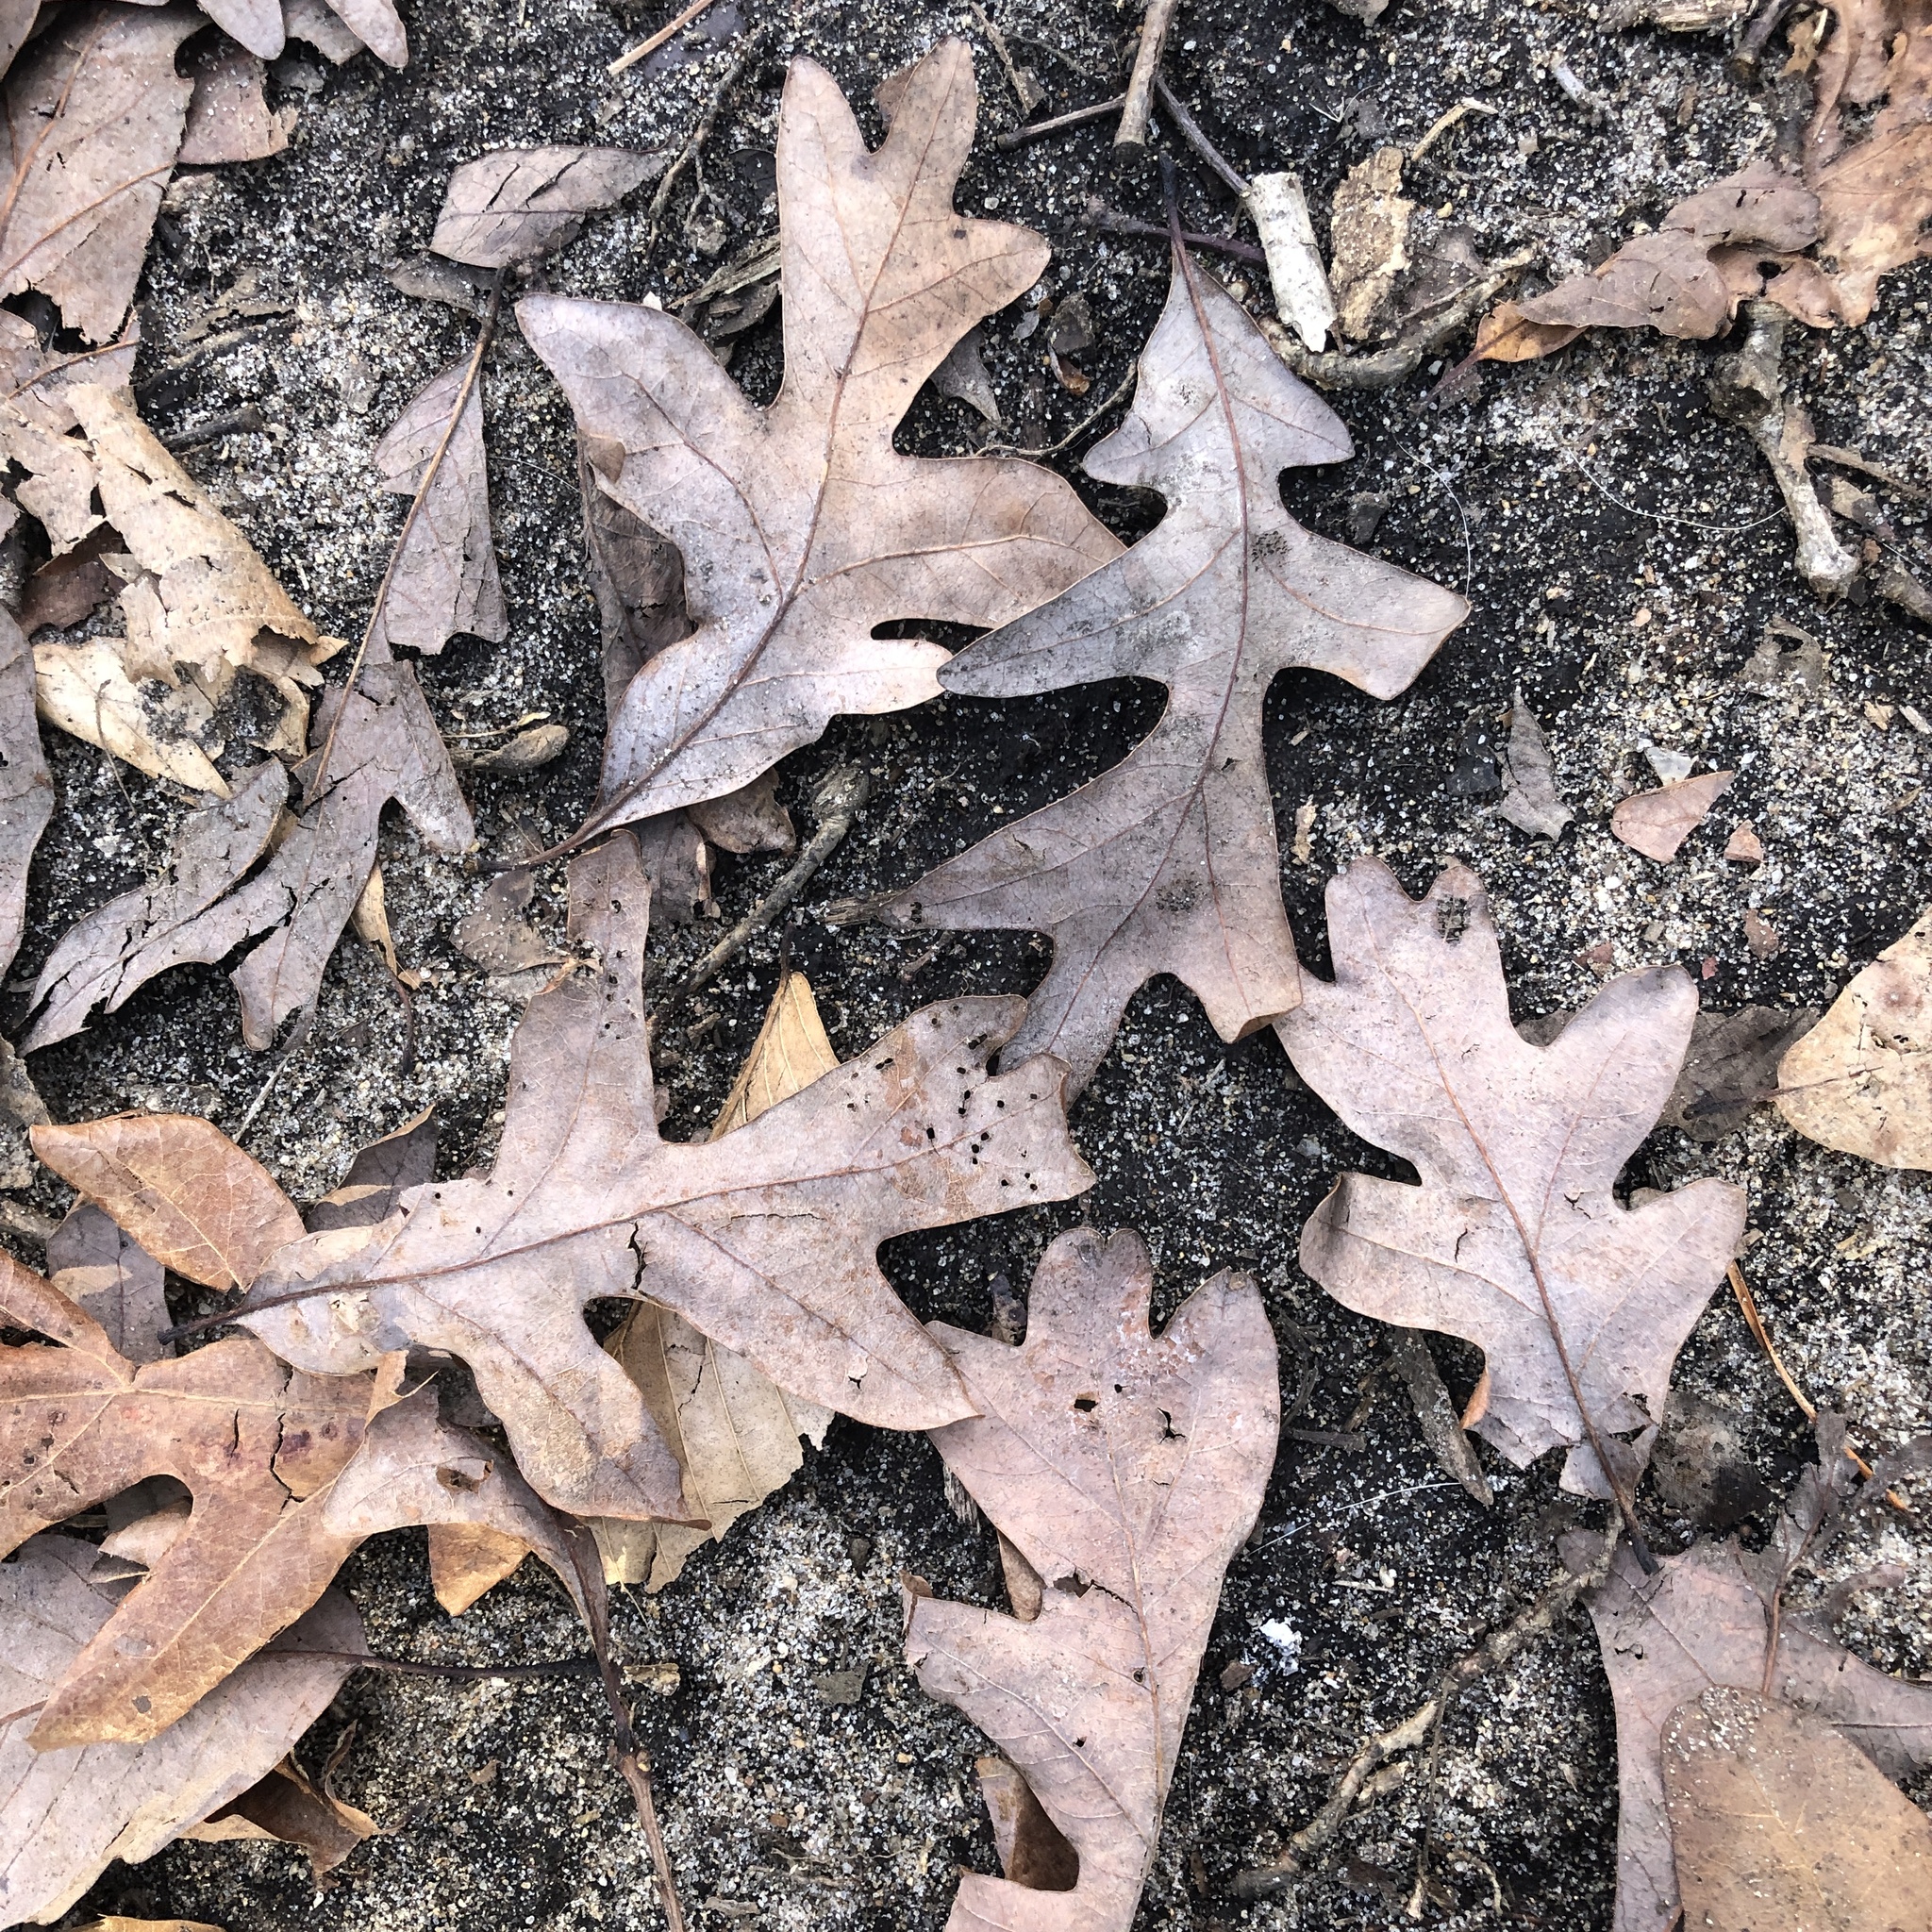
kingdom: Plantae
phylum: Tracheophyta
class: Magnoliopsida
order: Fagales
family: Fagaceae
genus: Quercus
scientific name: Quercus alba
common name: White oak
